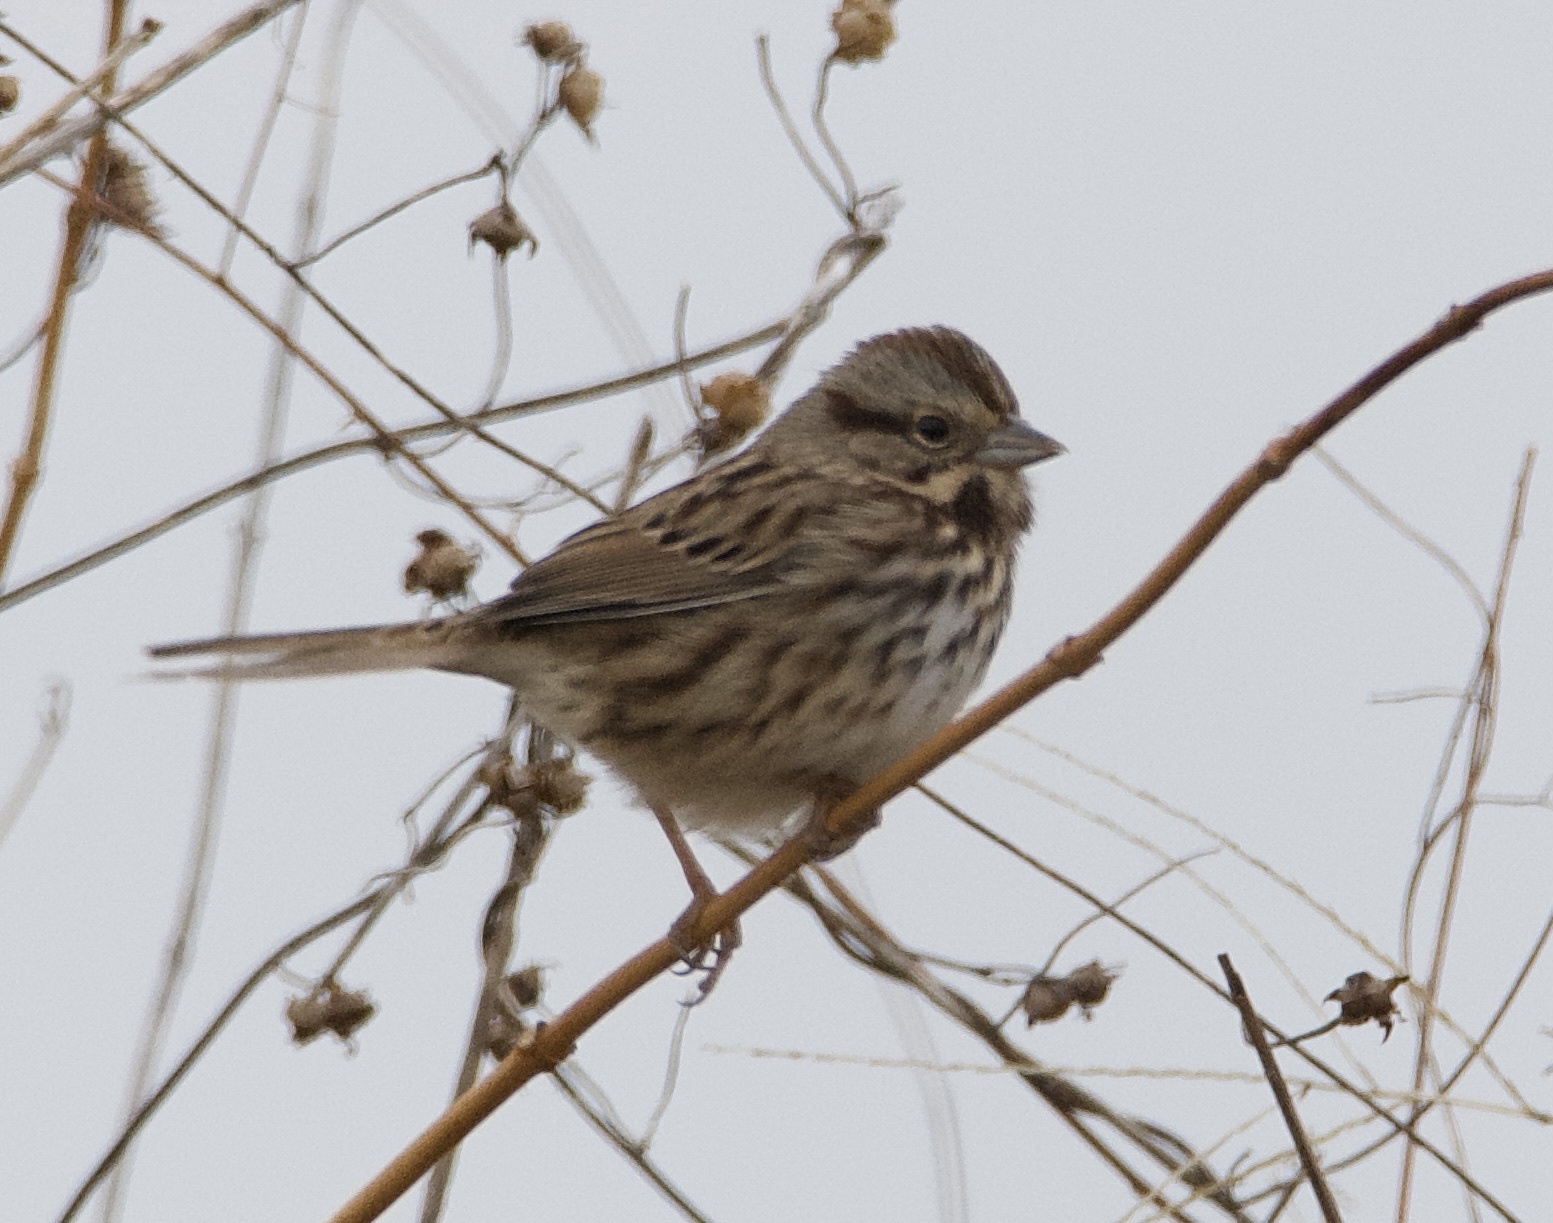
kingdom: Animalia
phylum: Chordata
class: Aves
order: Passeriformes
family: Passerellidae
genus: Melospiza
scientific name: Melospiza melodia
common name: Song sparrow
